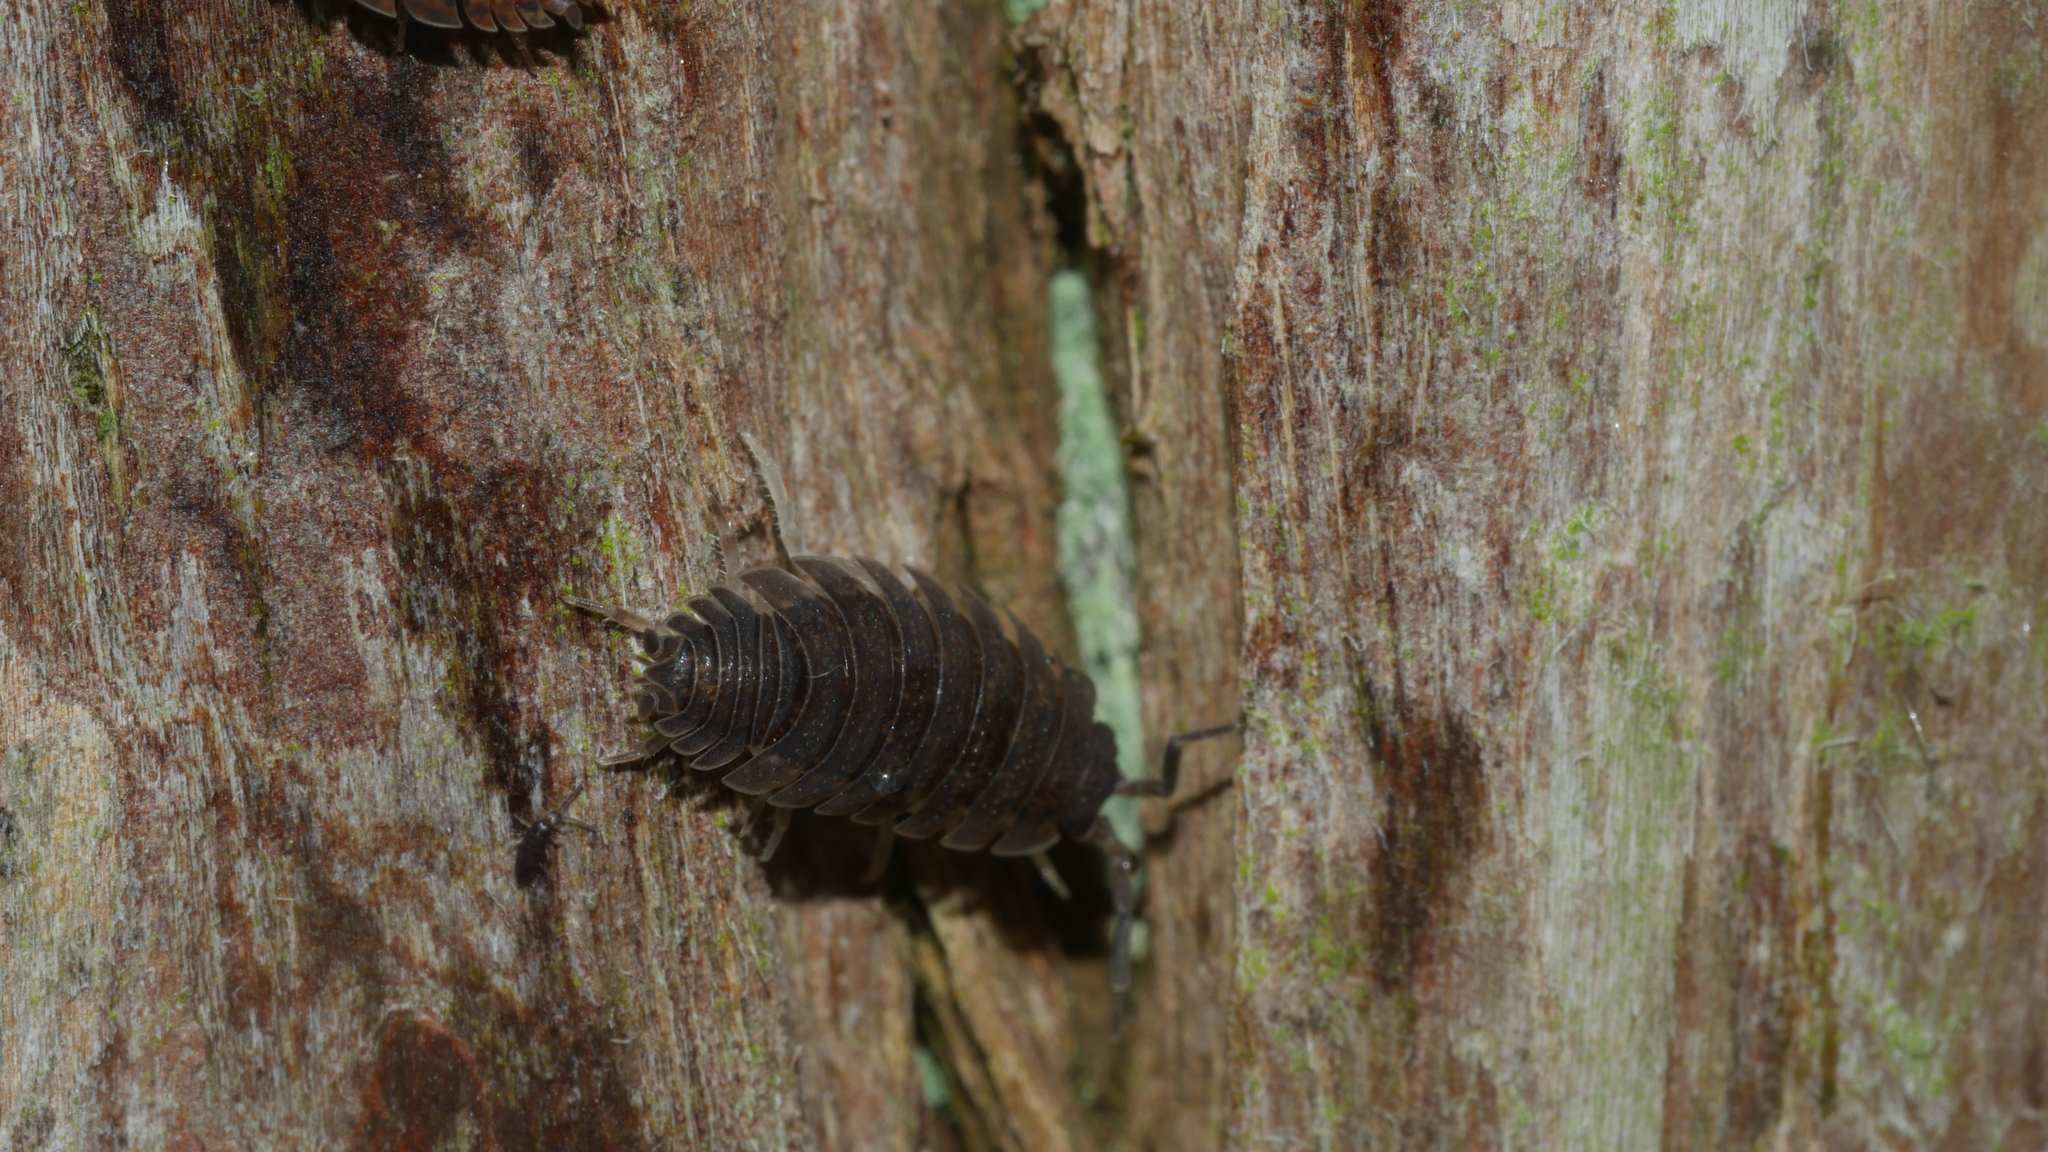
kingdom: Animalia
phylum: Arthropoda
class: Malacostraca
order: Isopoda
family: Porcellionidae
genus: Porcellio
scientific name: Porcellio scaber
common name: Common rough woodlouse
